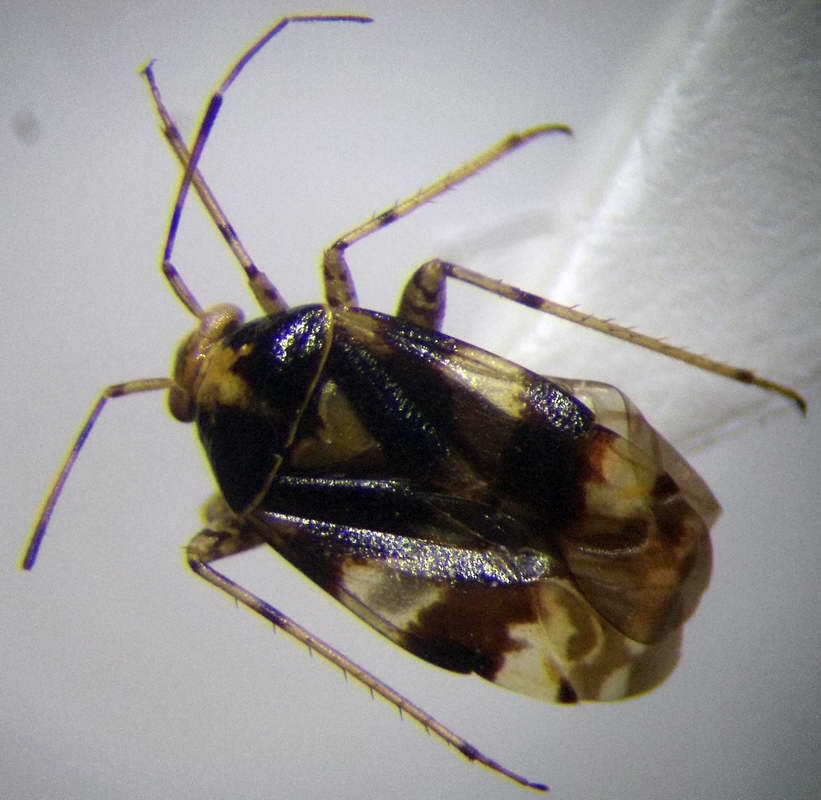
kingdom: Animalia
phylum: Arthropoda
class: Insecta
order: Hemiptera
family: Miridae
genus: Liocoris
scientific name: Liocoris tripustulatus
